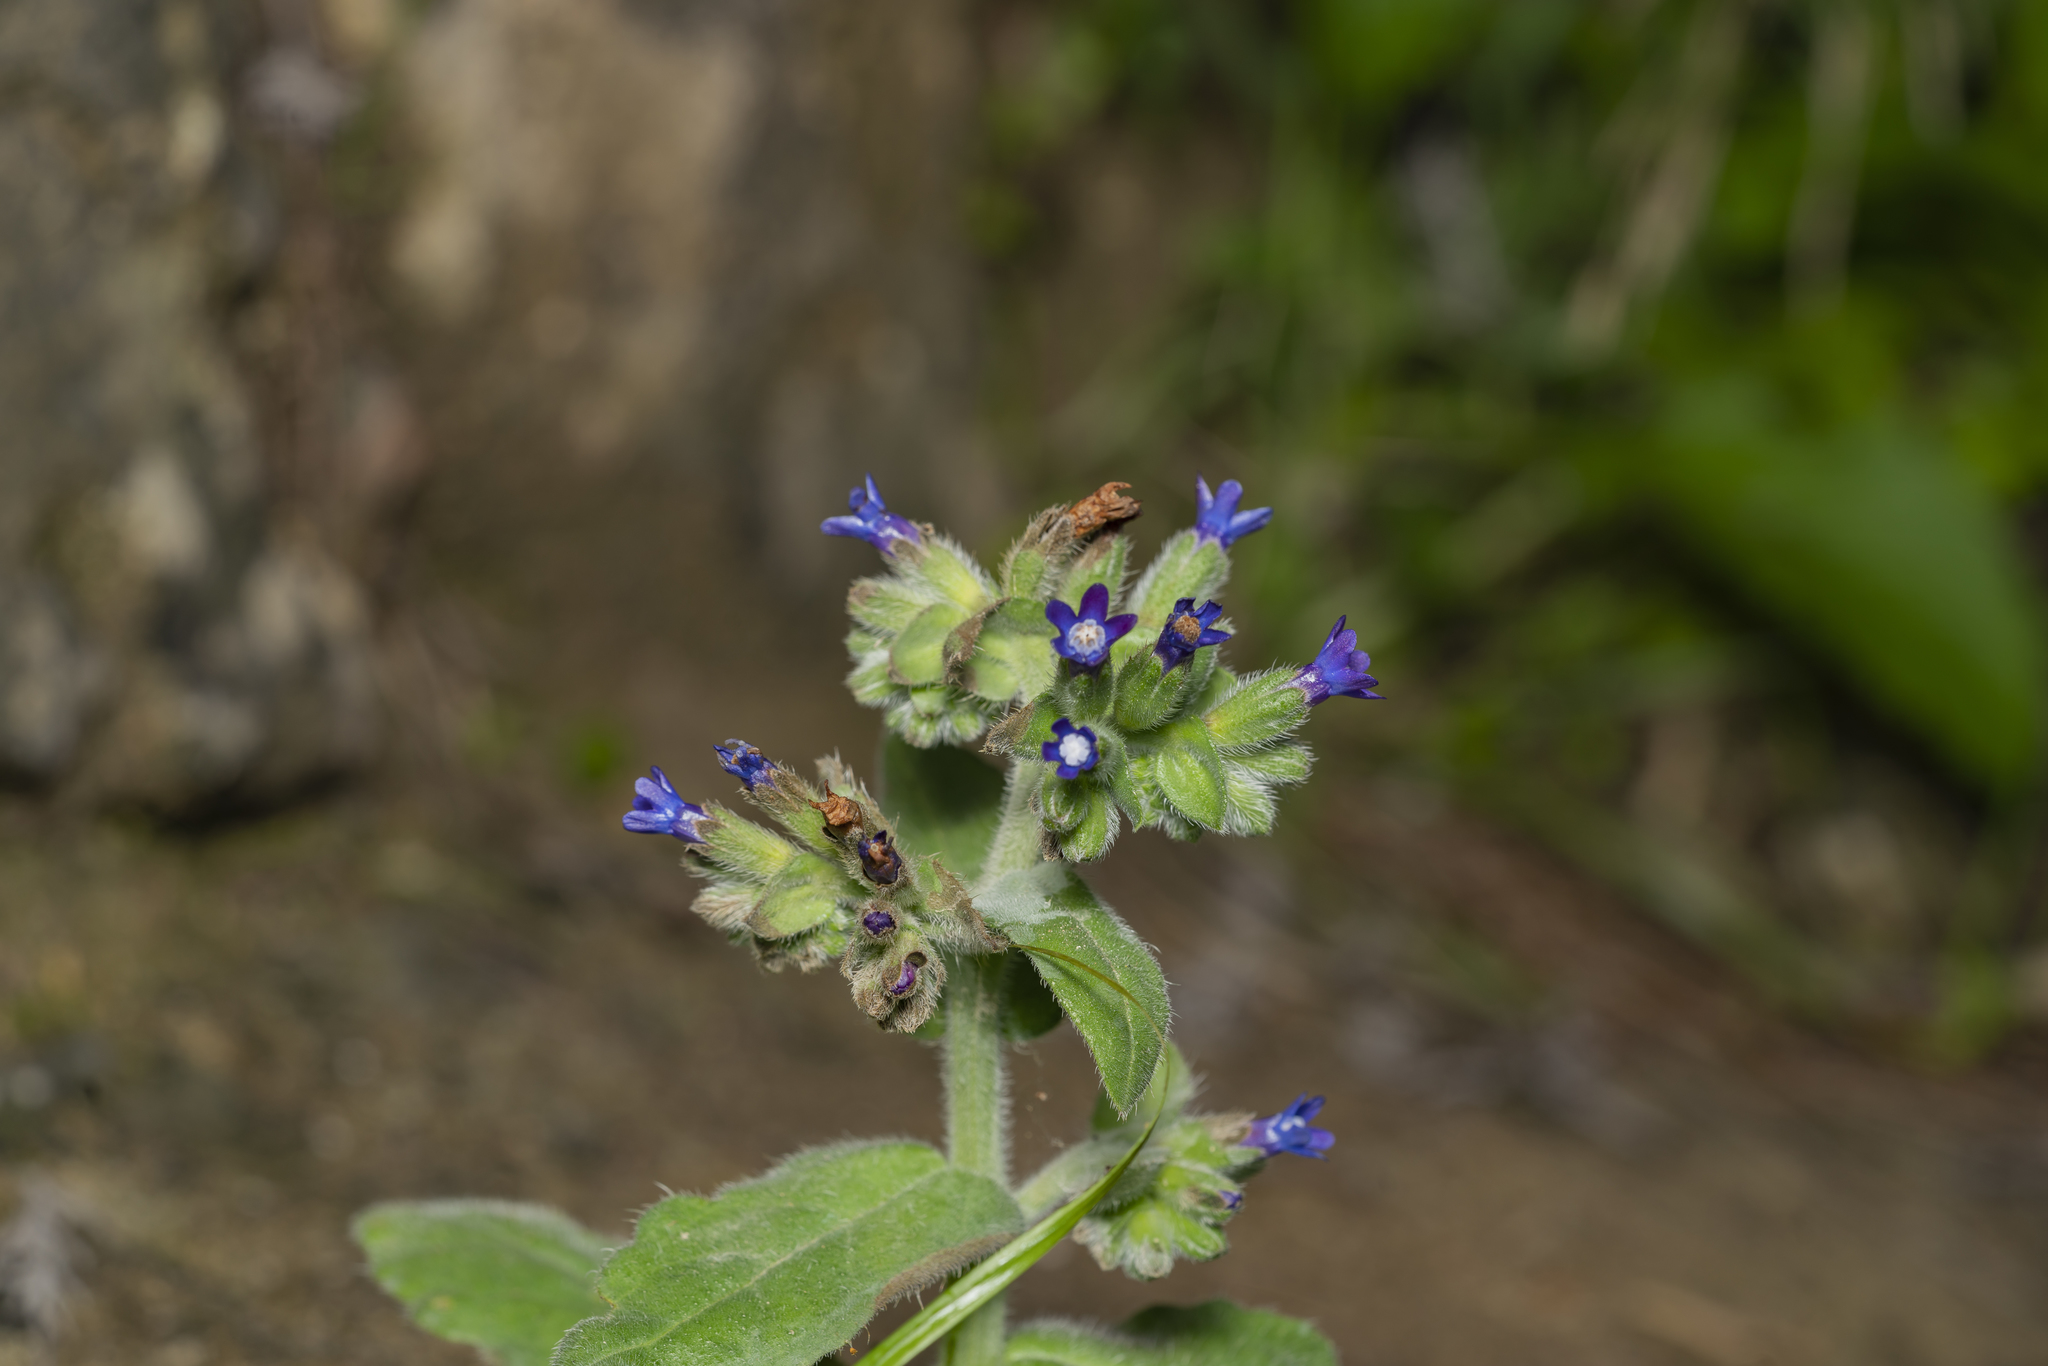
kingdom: Plantae
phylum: Tracheophyta
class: Magnoliopsida
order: Boraginales
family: Boraginaceae
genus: Anchusa
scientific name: Anchusa hybrida
